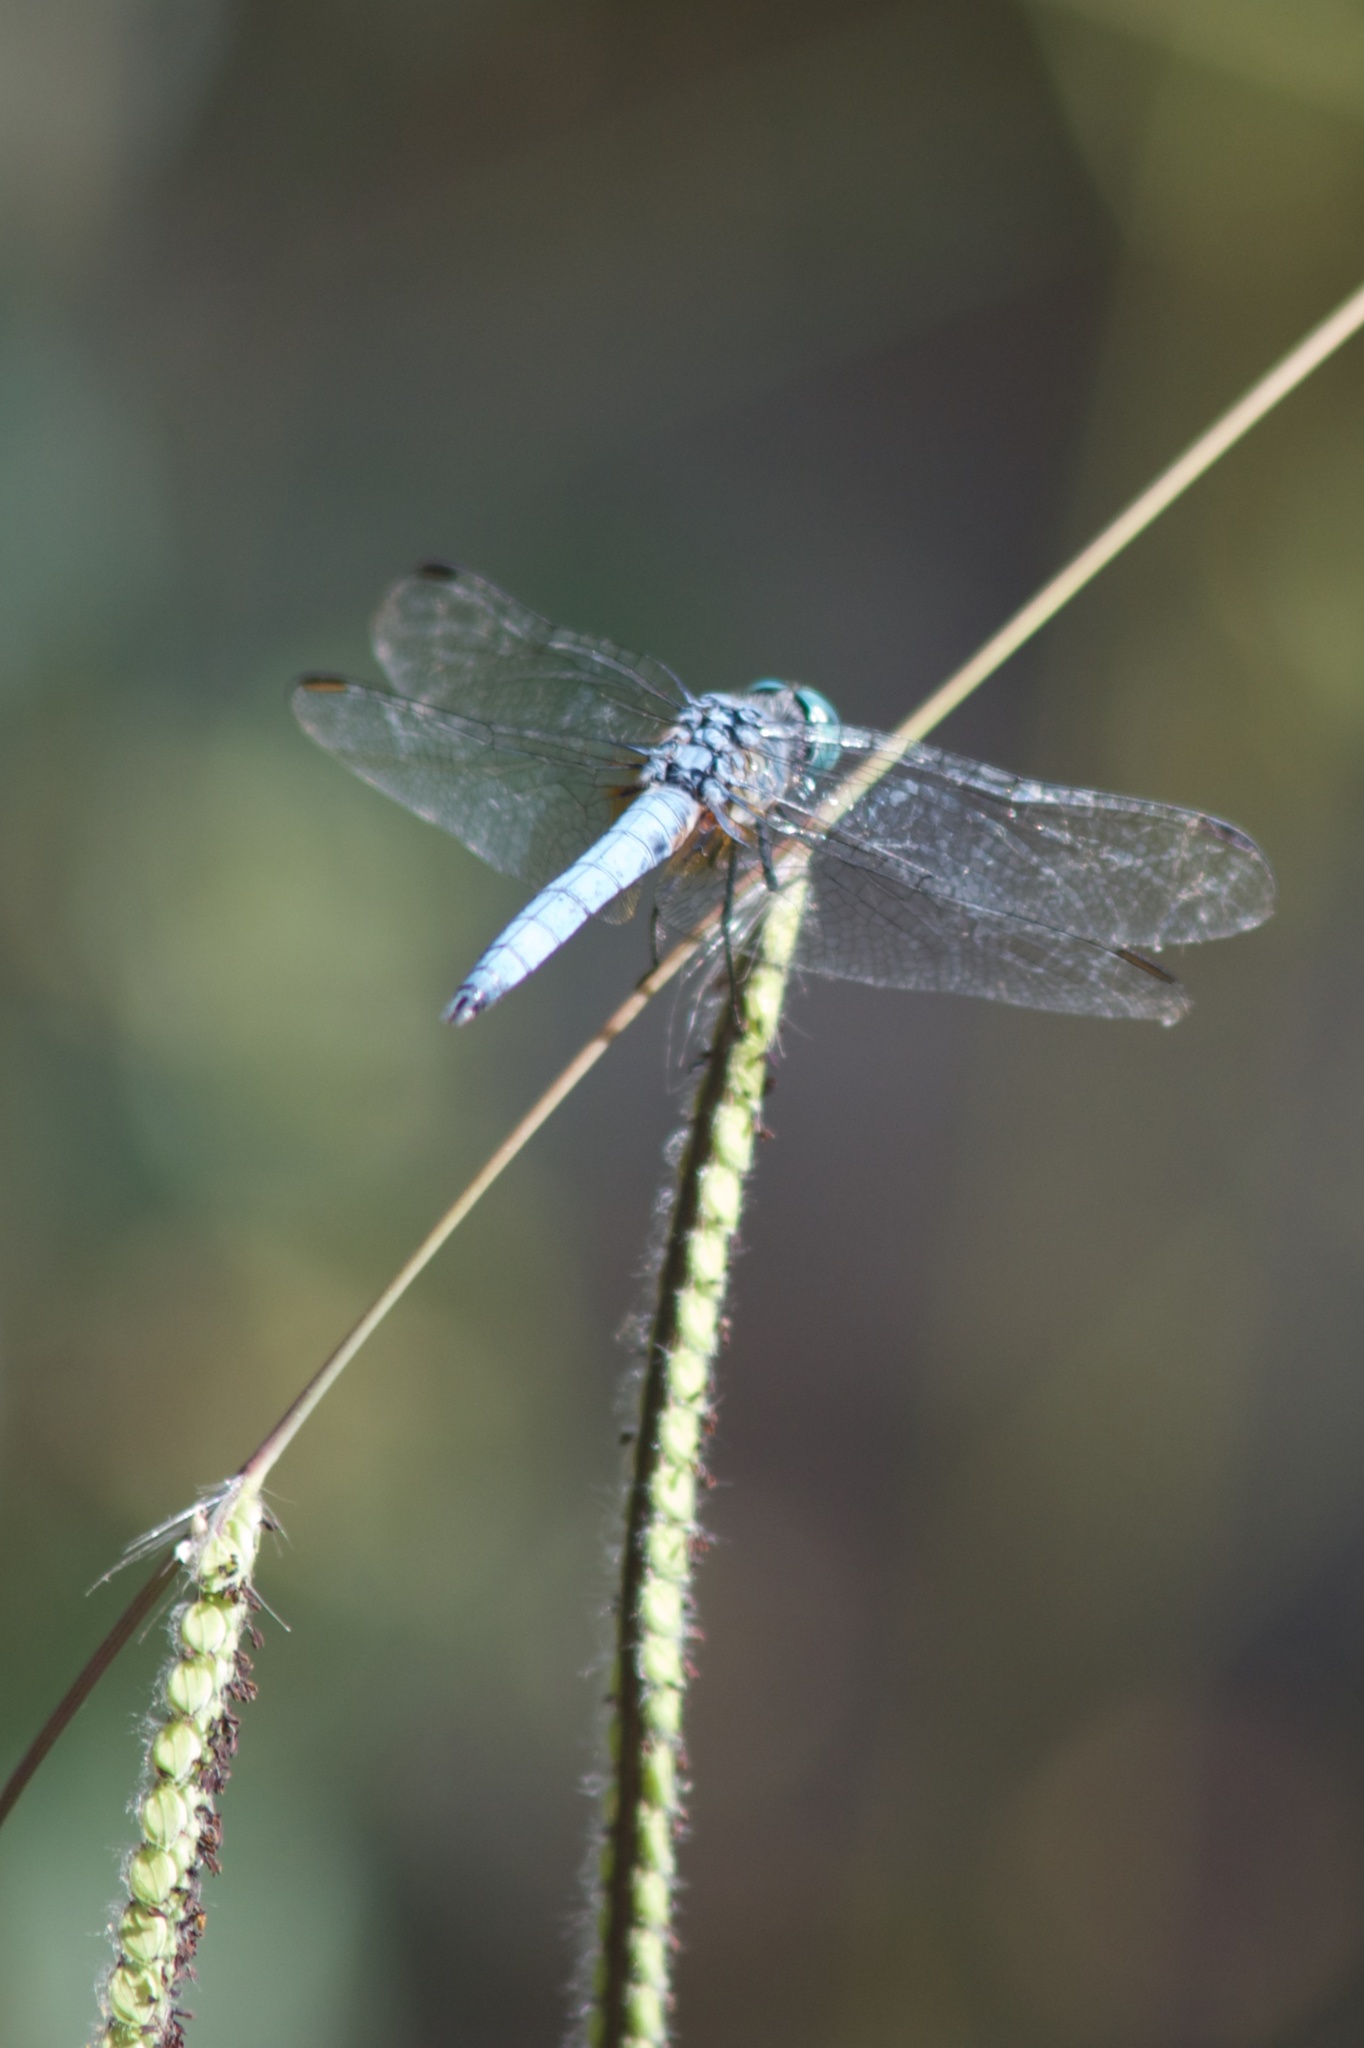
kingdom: Animalia
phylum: Arthropoda
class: Insecta
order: Odonata
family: Libellulidae
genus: Pachydiplax
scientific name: Pachydiplax longipennis
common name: Blue dasher
